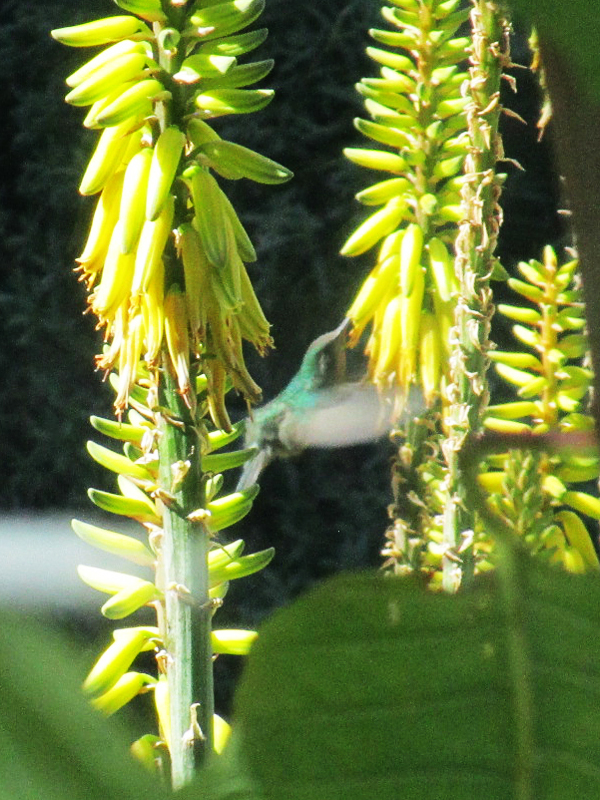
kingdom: Animalia
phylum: Chordata
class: Aves
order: Apodiformes
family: Trochilidae
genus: Cynanthus
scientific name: Cynanthus latirostris
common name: Broad-billed hummingbird
